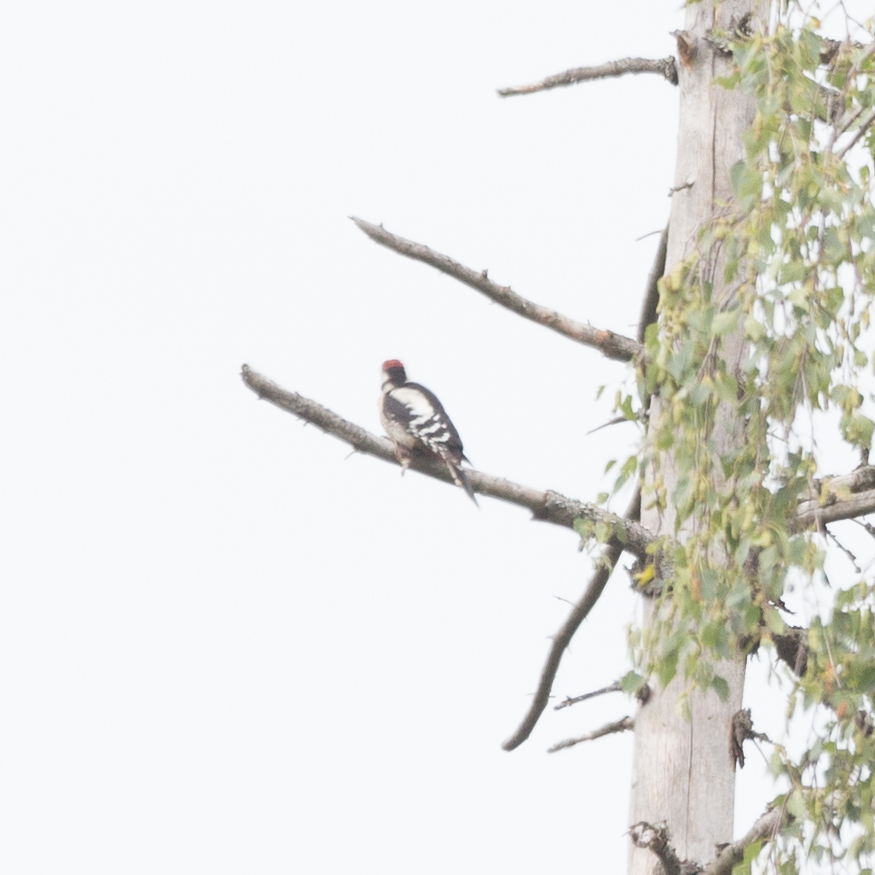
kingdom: Animalia
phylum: Chordata
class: Aves
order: Piciformes
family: Picidae
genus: Dendrocopos
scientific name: Dendrocopos major
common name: Great spotted woodpecker
